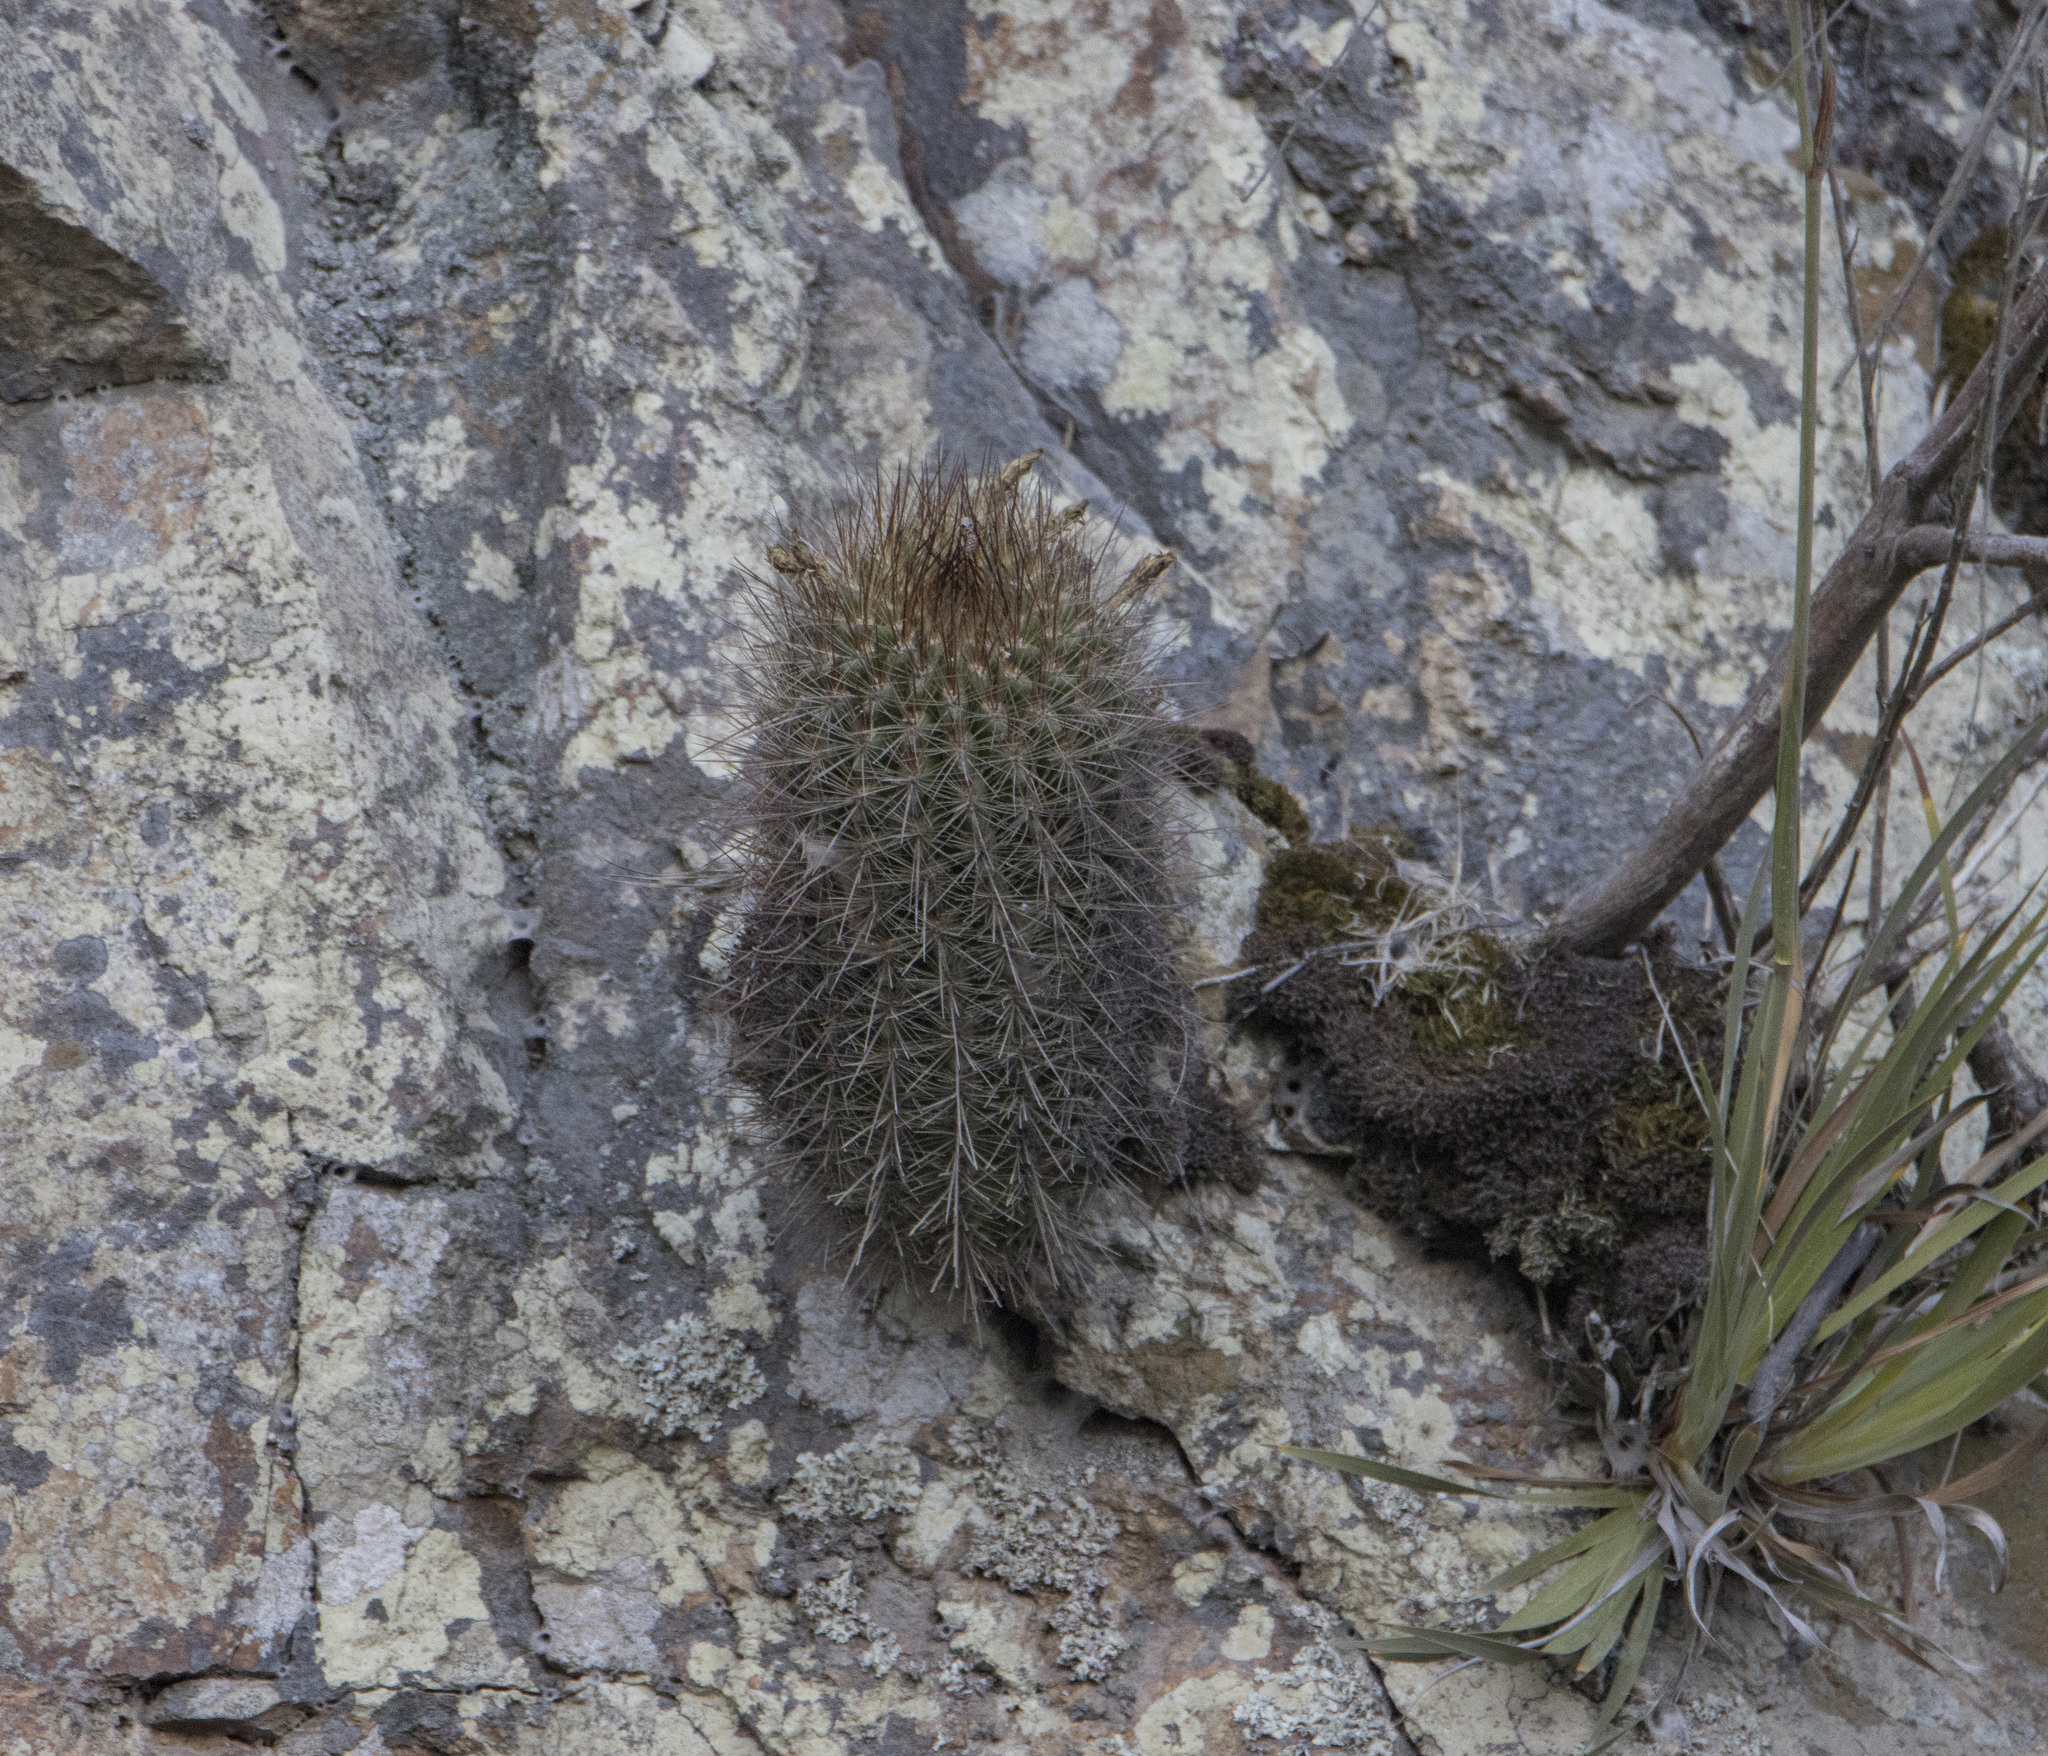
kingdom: Plantae
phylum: Tracheophyta
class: Magnoliopsida
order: Caryophyllales
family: Cactaceae
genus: Eriosyce
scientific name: Eriosyce subgibbosa
